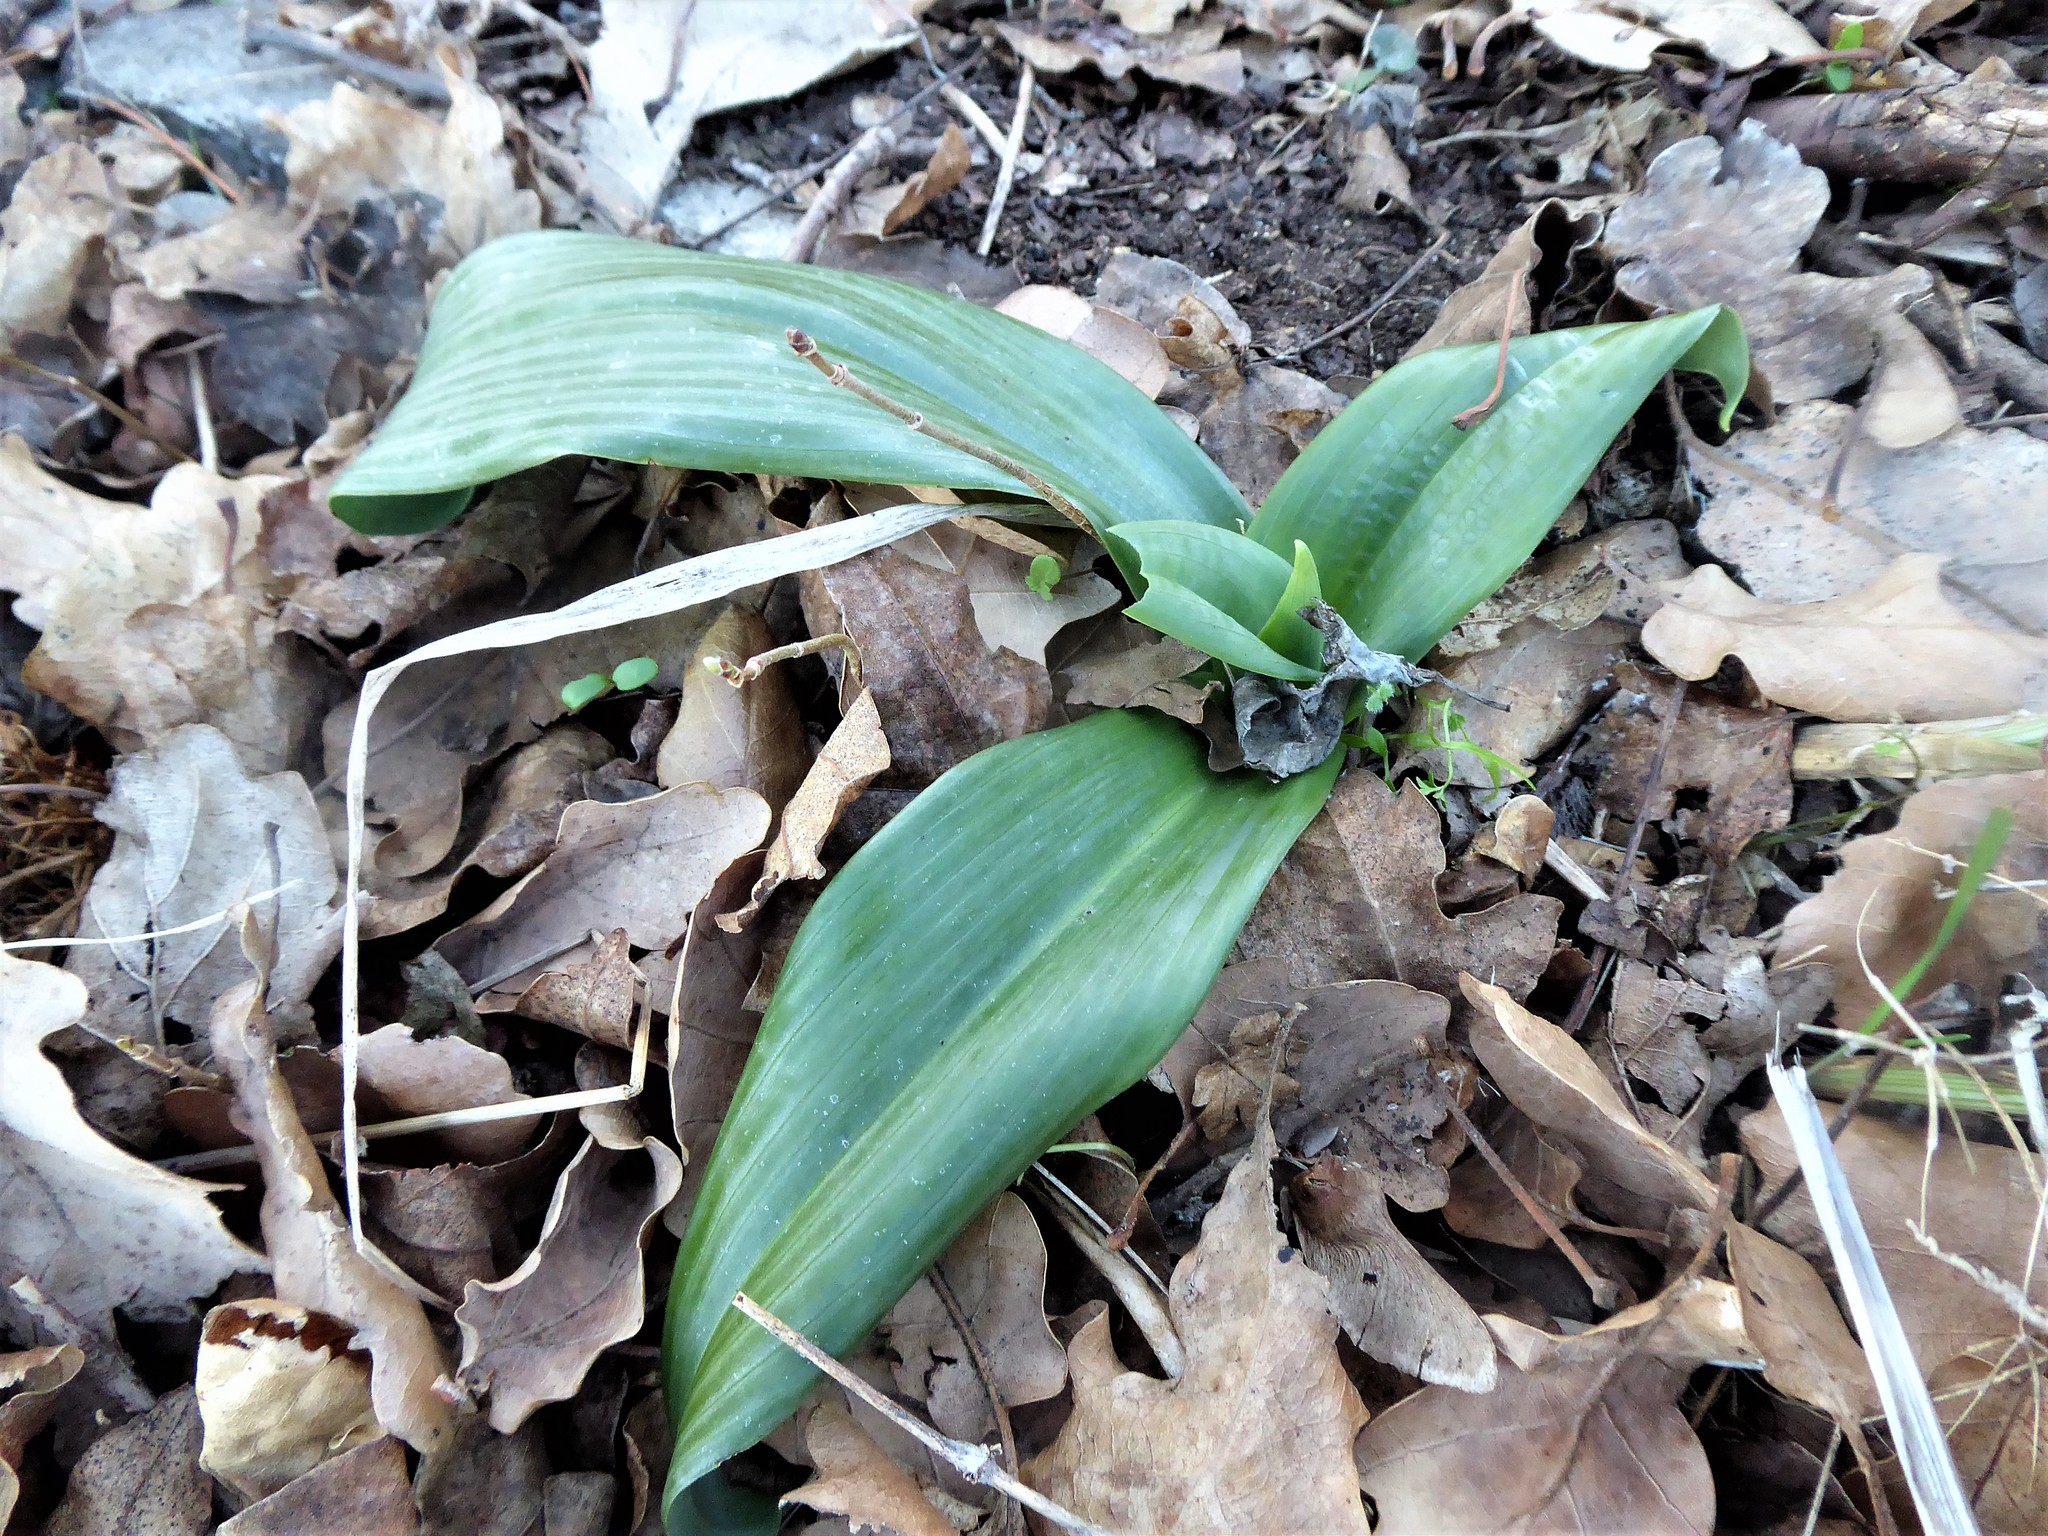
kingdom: Plantae
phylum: Tracheophyta
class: Liliopsida
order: Asparagales
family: Orchidaceae
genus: Himantoglossum
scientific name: Himantoglossum adriaticum
